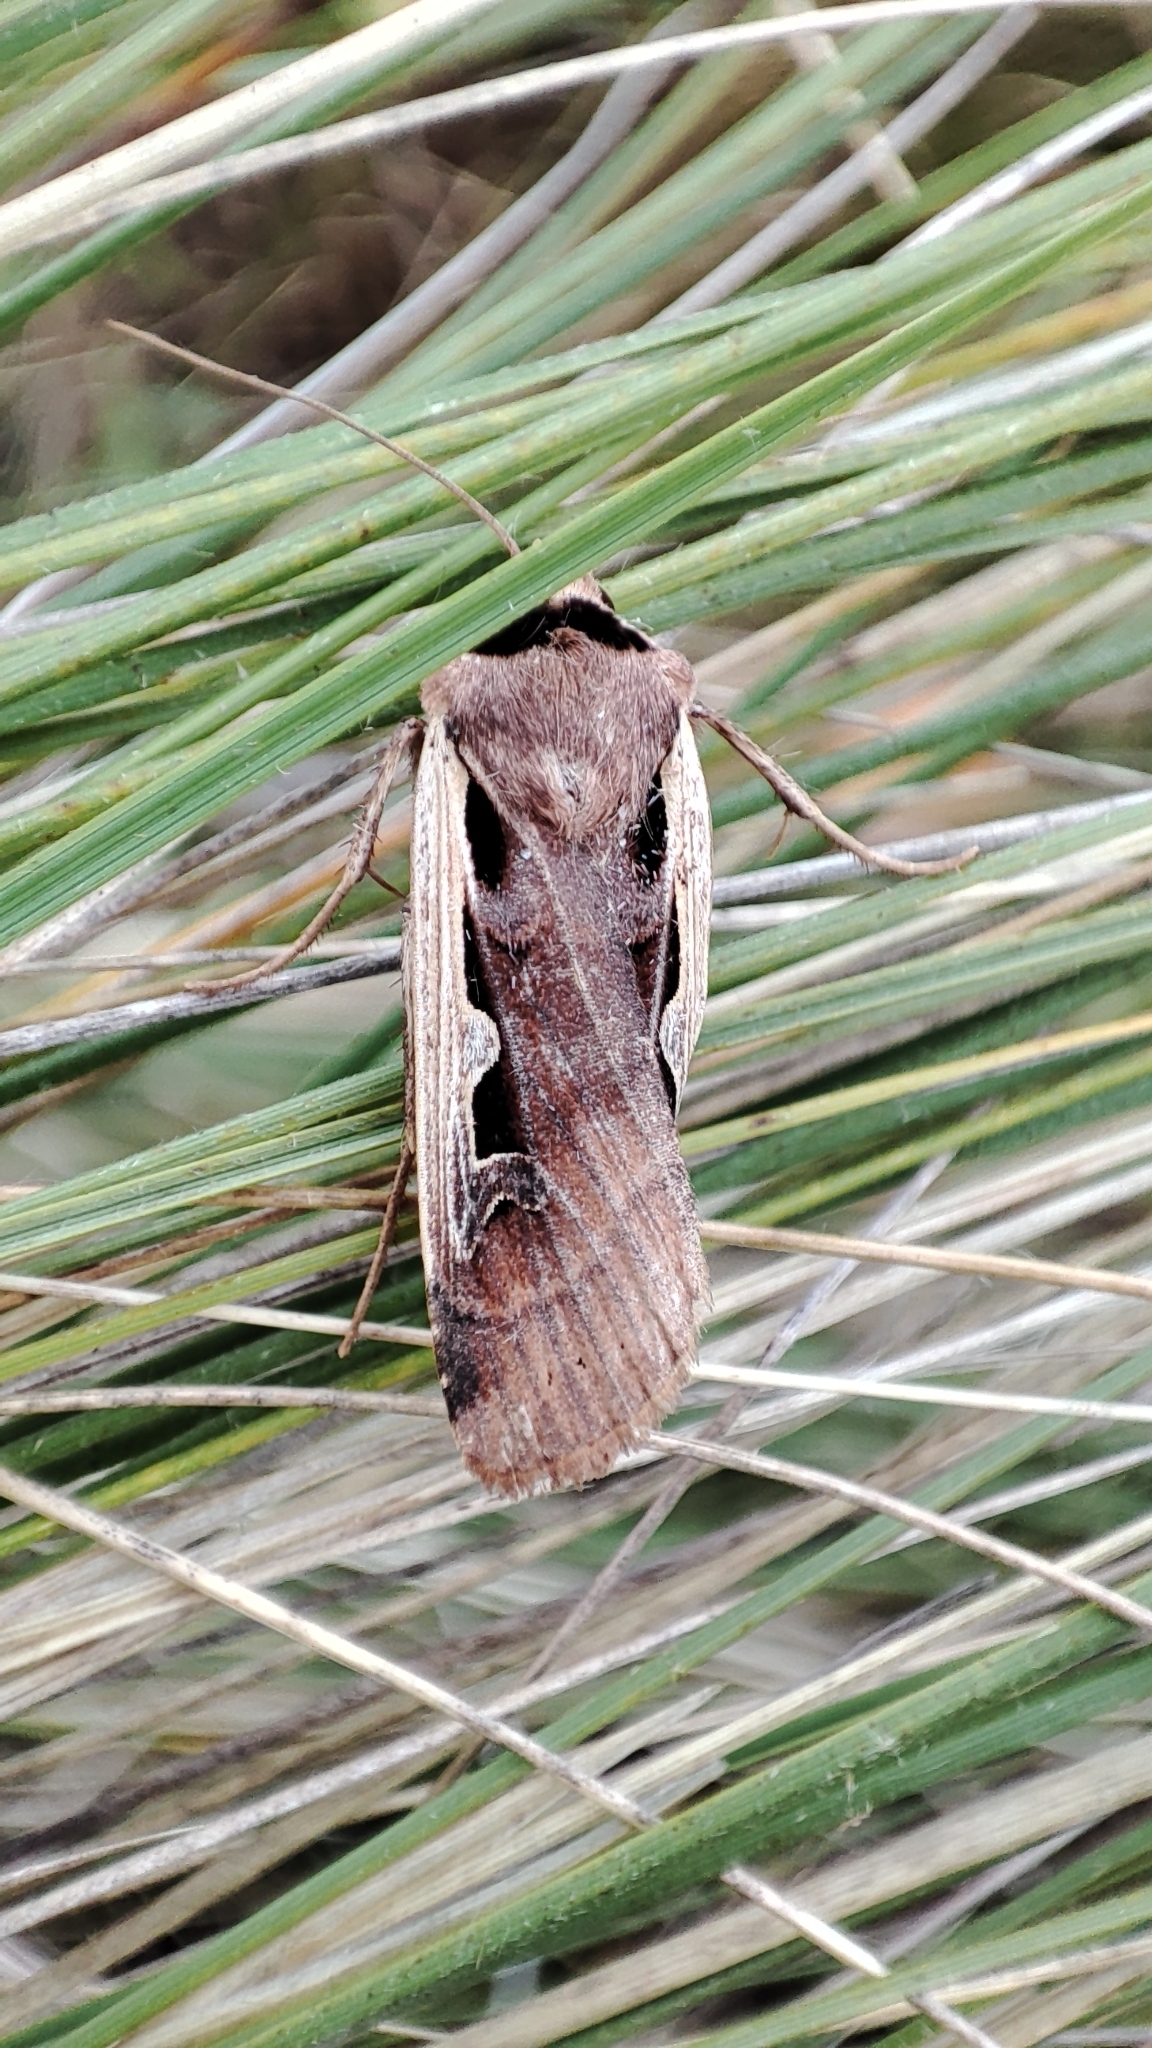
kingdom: Animalia
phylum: Arthropoda
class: Insecta
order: Lepidoptera
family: Noctuidae
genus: Dichagyris
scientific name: Dichagyris musiva
